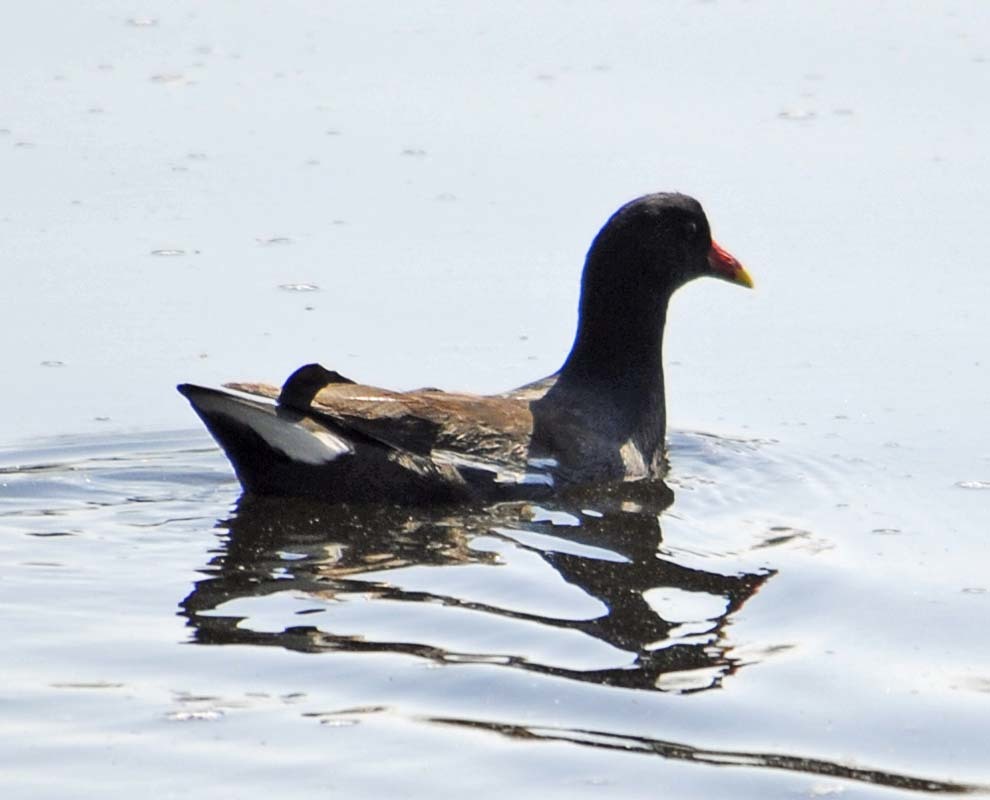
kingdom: Animalia
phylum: Chordata
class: Aves
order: Gruiformes
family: Rallidae
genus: Gallinula
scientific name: Gallinula chloropus
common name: Common moorhen
